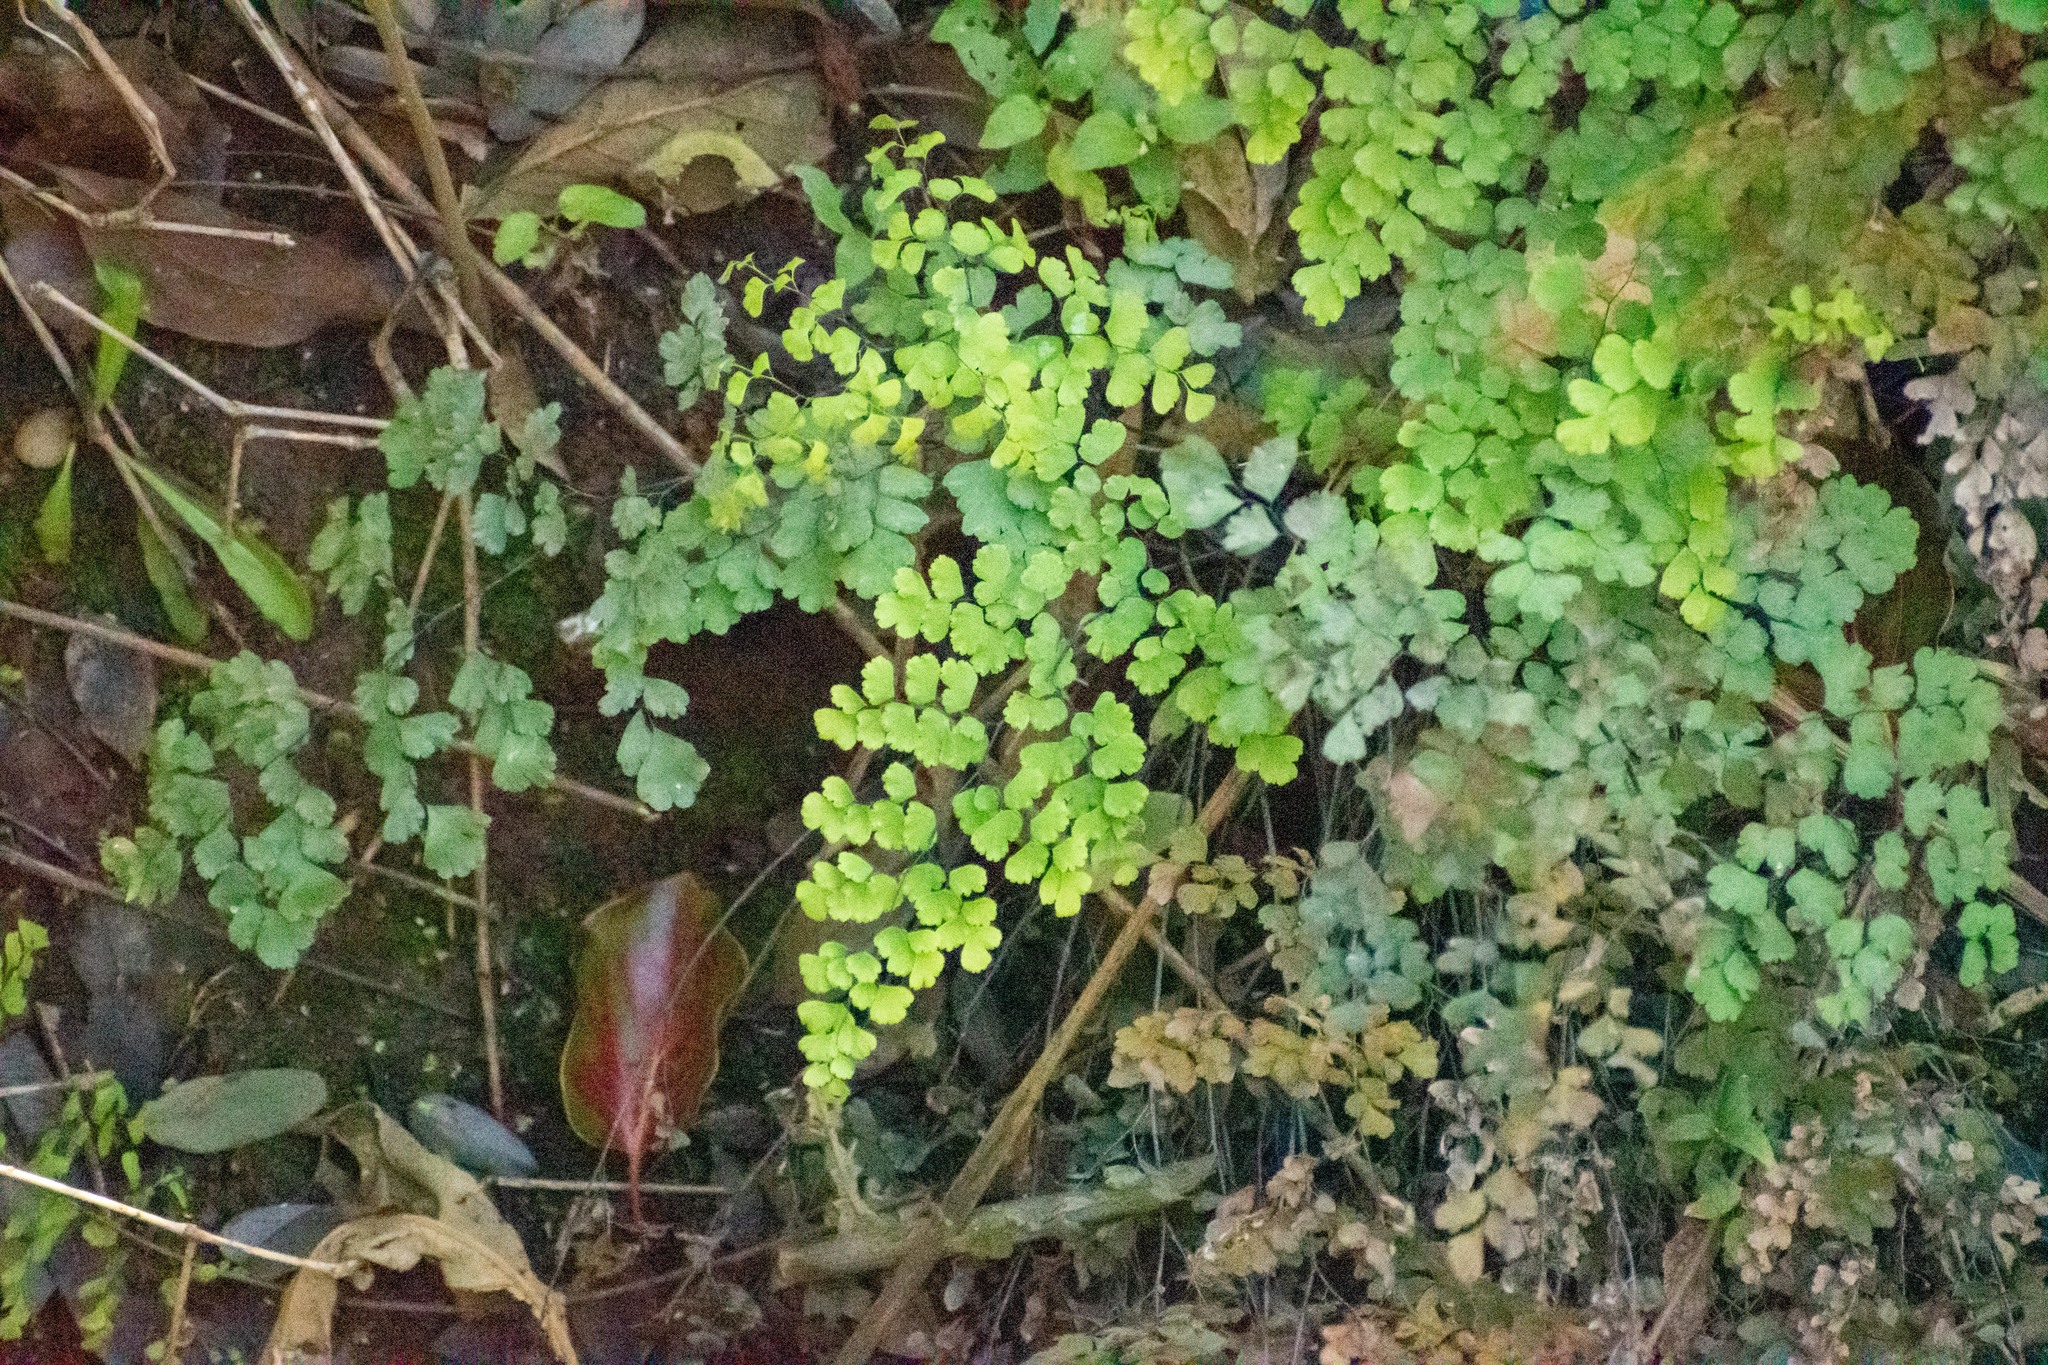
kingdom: Plantae
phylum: Tracheophyta
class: Polypodiopsida
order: Polypodiales
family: Pteridaceae
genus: Adiantum
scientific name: Adiantum raddianum
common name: Delta maidenhair fern
